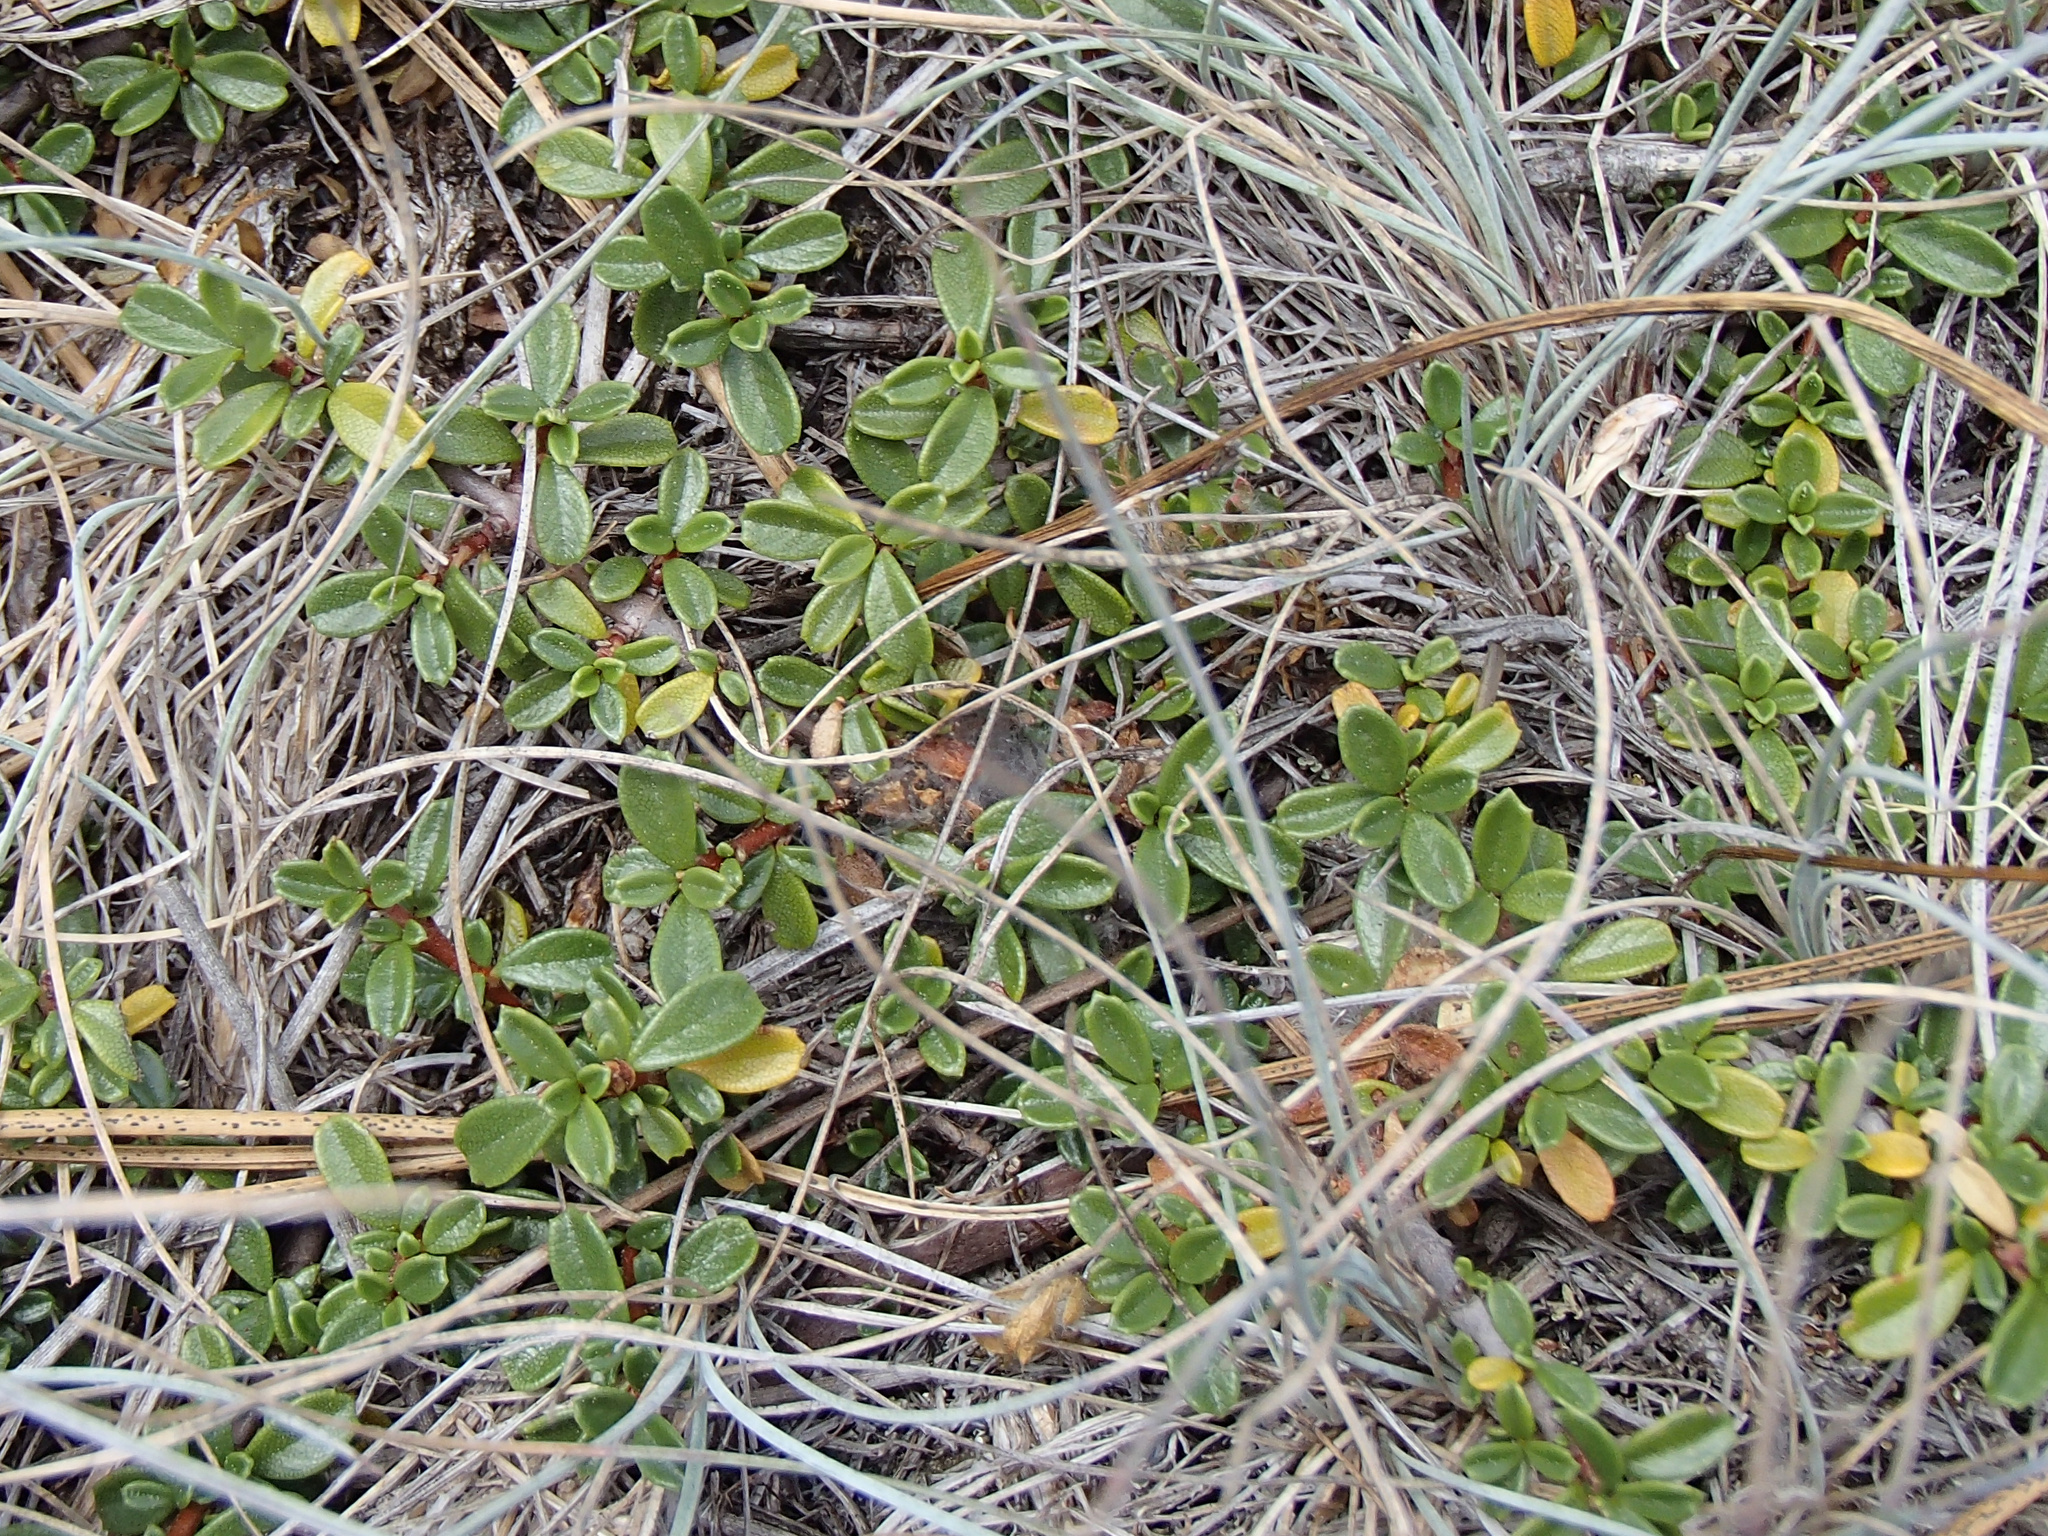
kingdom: Plantae
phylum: Tracheophyta
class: Magnoliopsida
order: Rosales
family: Rhamnaceae
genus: Ceanothus
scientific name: Ceanothus pumilus
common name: Siskiyou-mat
